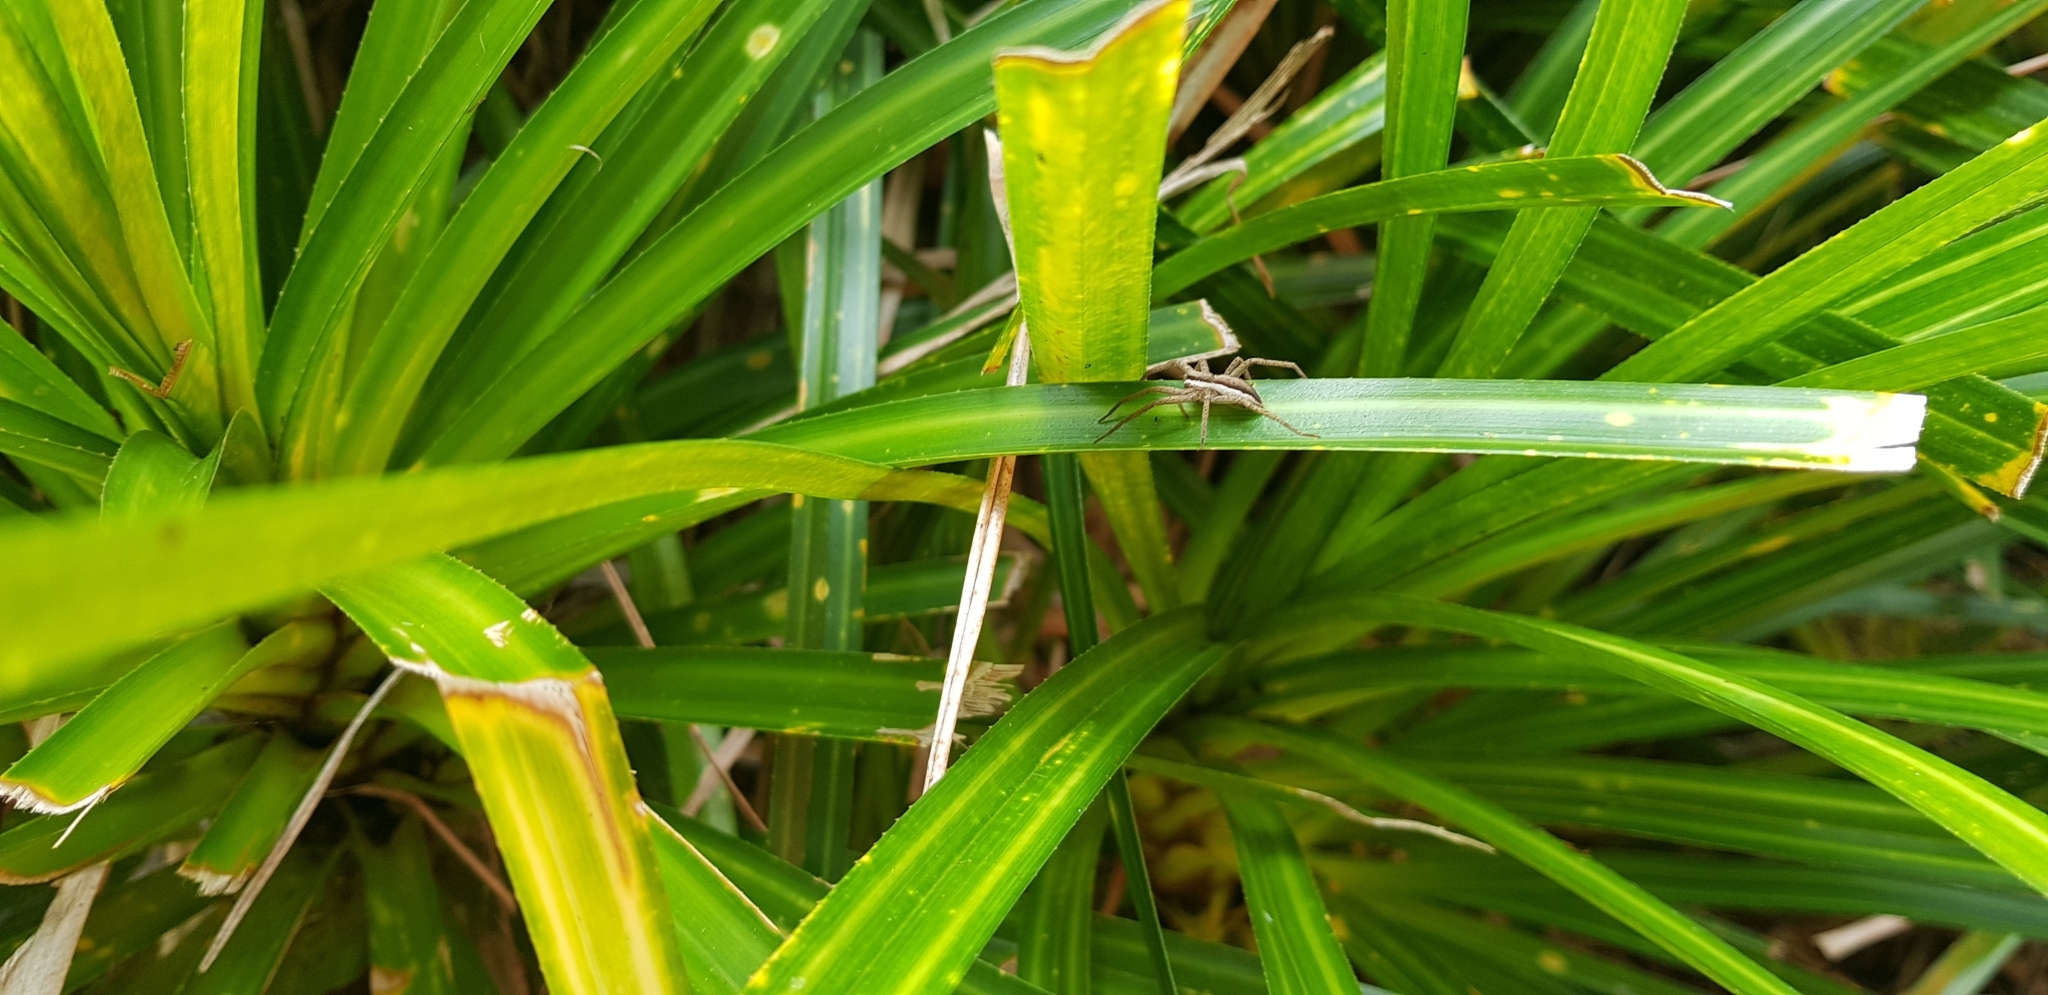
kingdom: Animalia
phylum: Arthropoda
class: Arachnida
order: Araneae
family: Pisauridae
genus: Dolomedes
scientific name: Dolomedes minor
